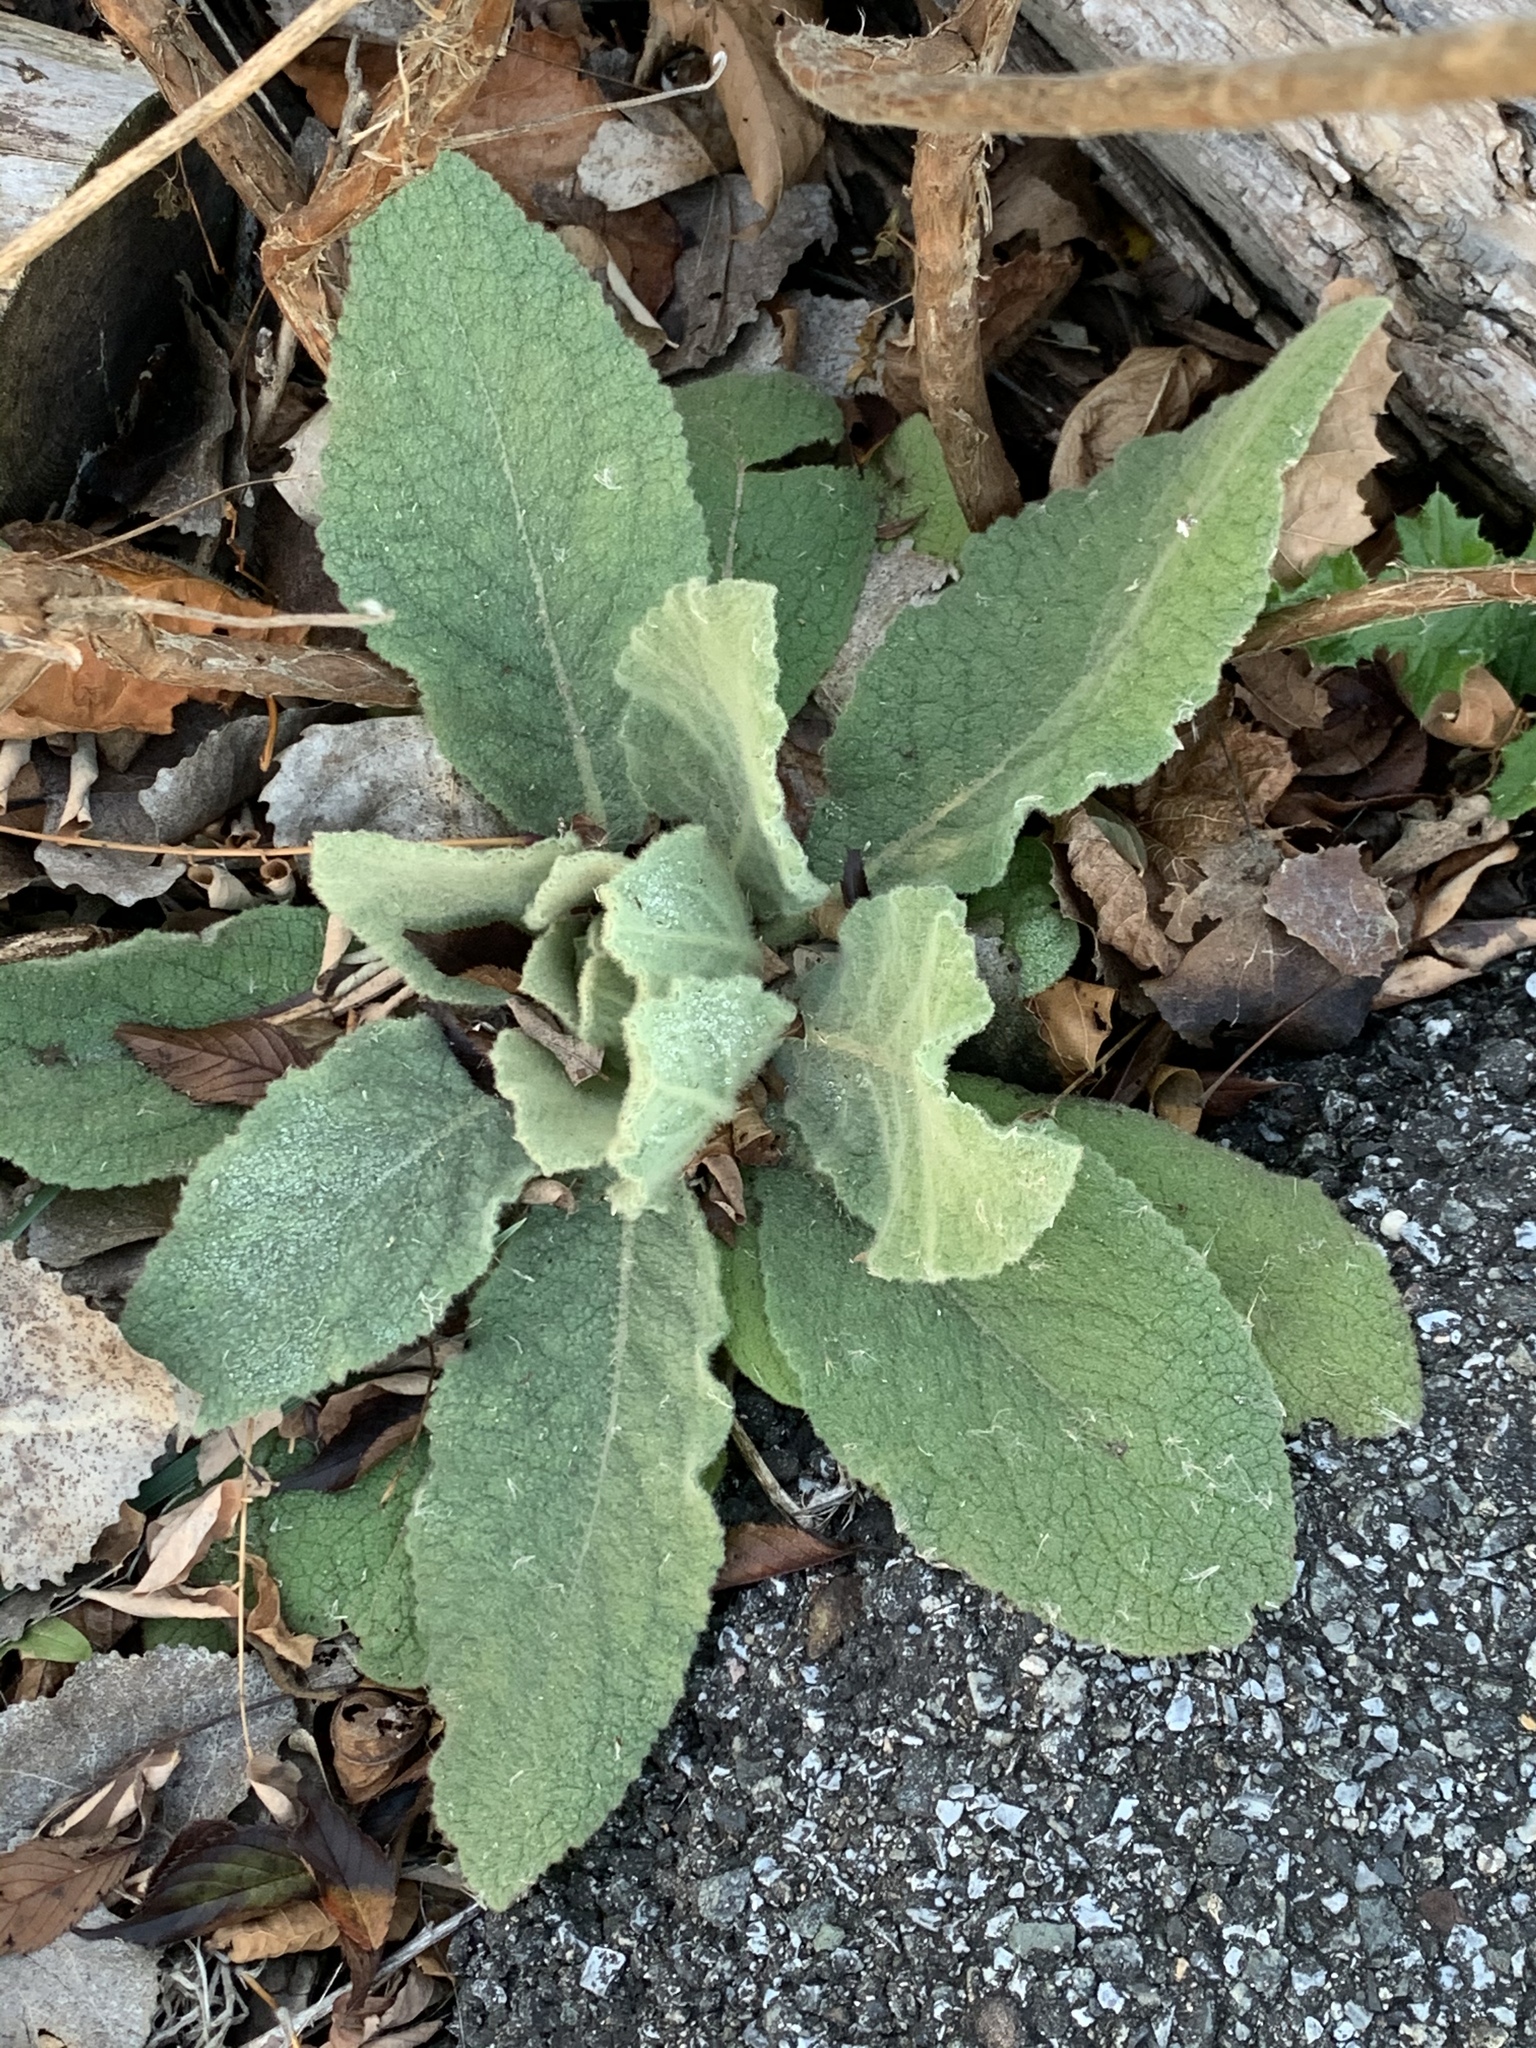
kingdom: Plantae
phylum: Tracheophyta
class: Magnoliopsida
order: Lamiales
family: Scrophulariaceae
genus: Verbascum
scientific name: Verbascum thapsus
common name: Common mullein
